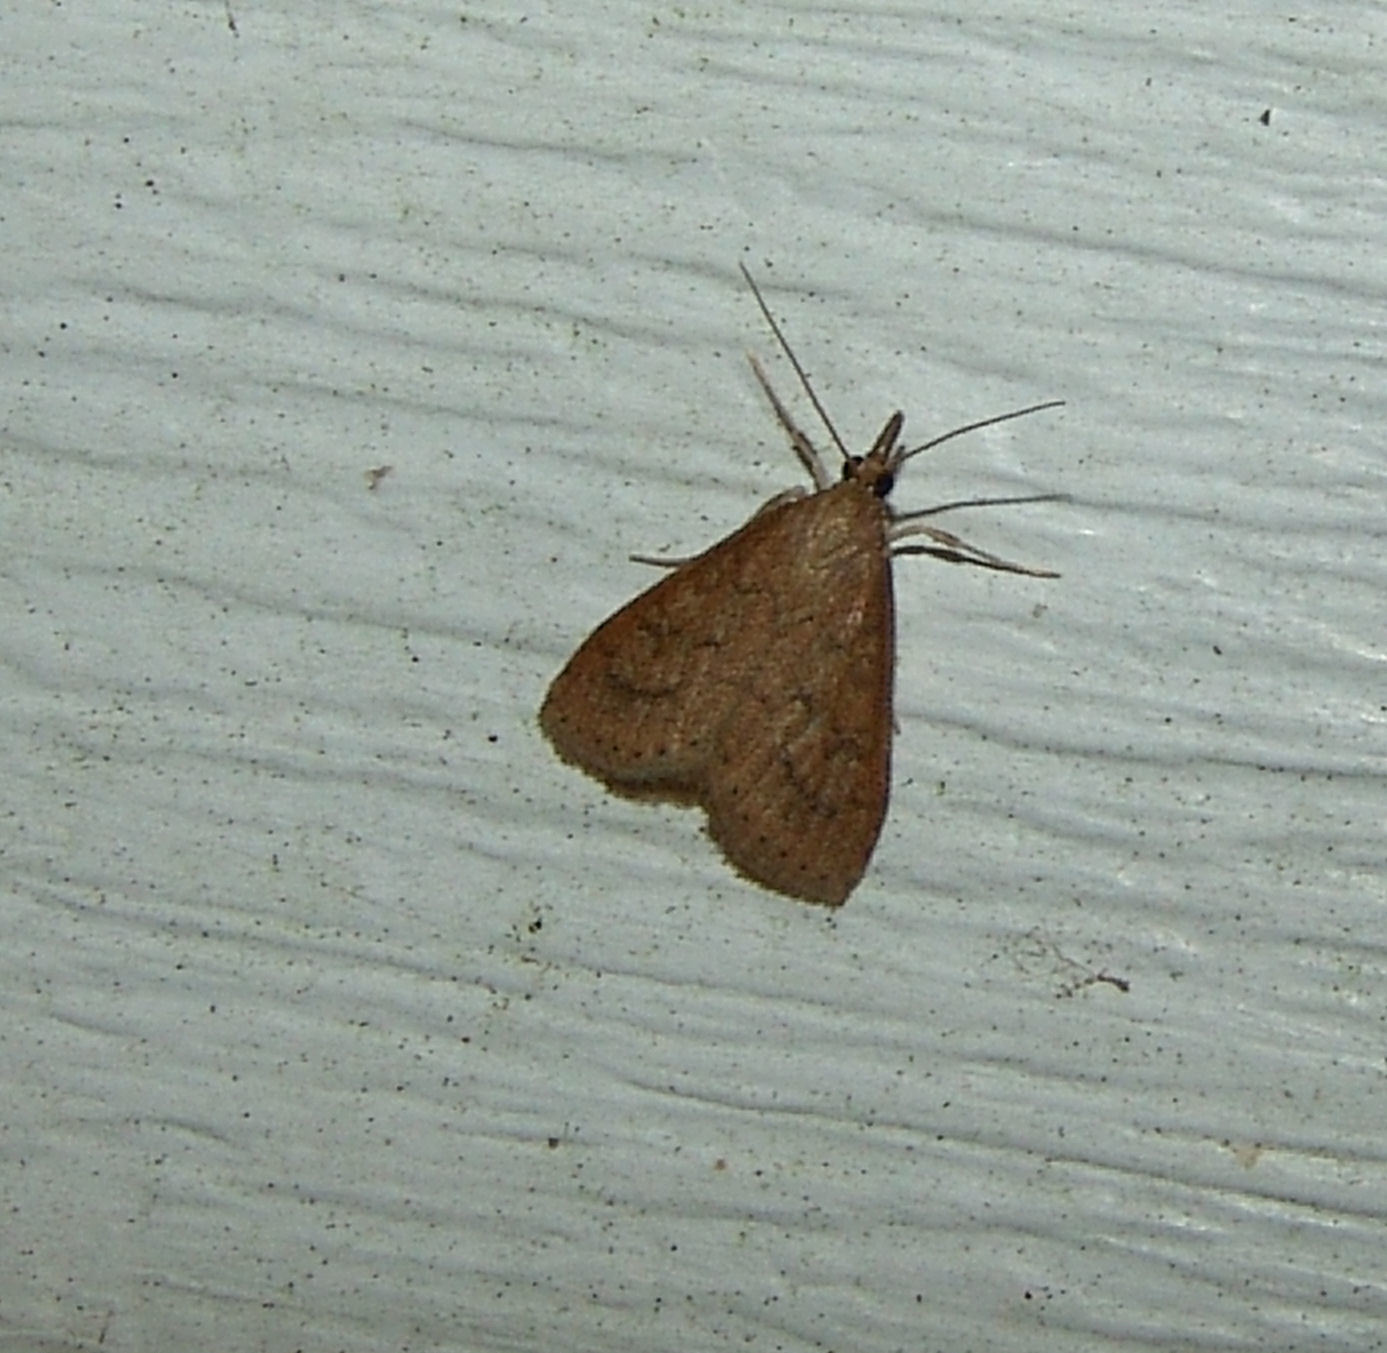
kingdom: Animalia
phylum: Arthropoda
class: Insecta
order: Lepidoptera
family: Crambidae
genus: Udea
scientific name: Udea rubigalis
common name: Celery leaftier moth
